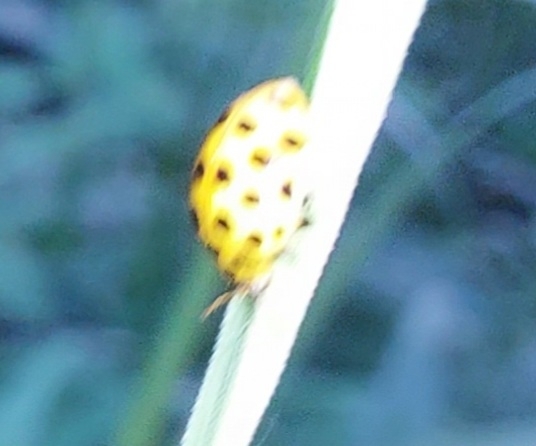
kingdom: Animalia
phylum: Arthropoda
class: Insecta
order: Coleoptera
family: Coccinellidae
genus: Psyllobora
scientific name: Psyllobora vigintiduopunctata
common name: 22-spot ladybird
